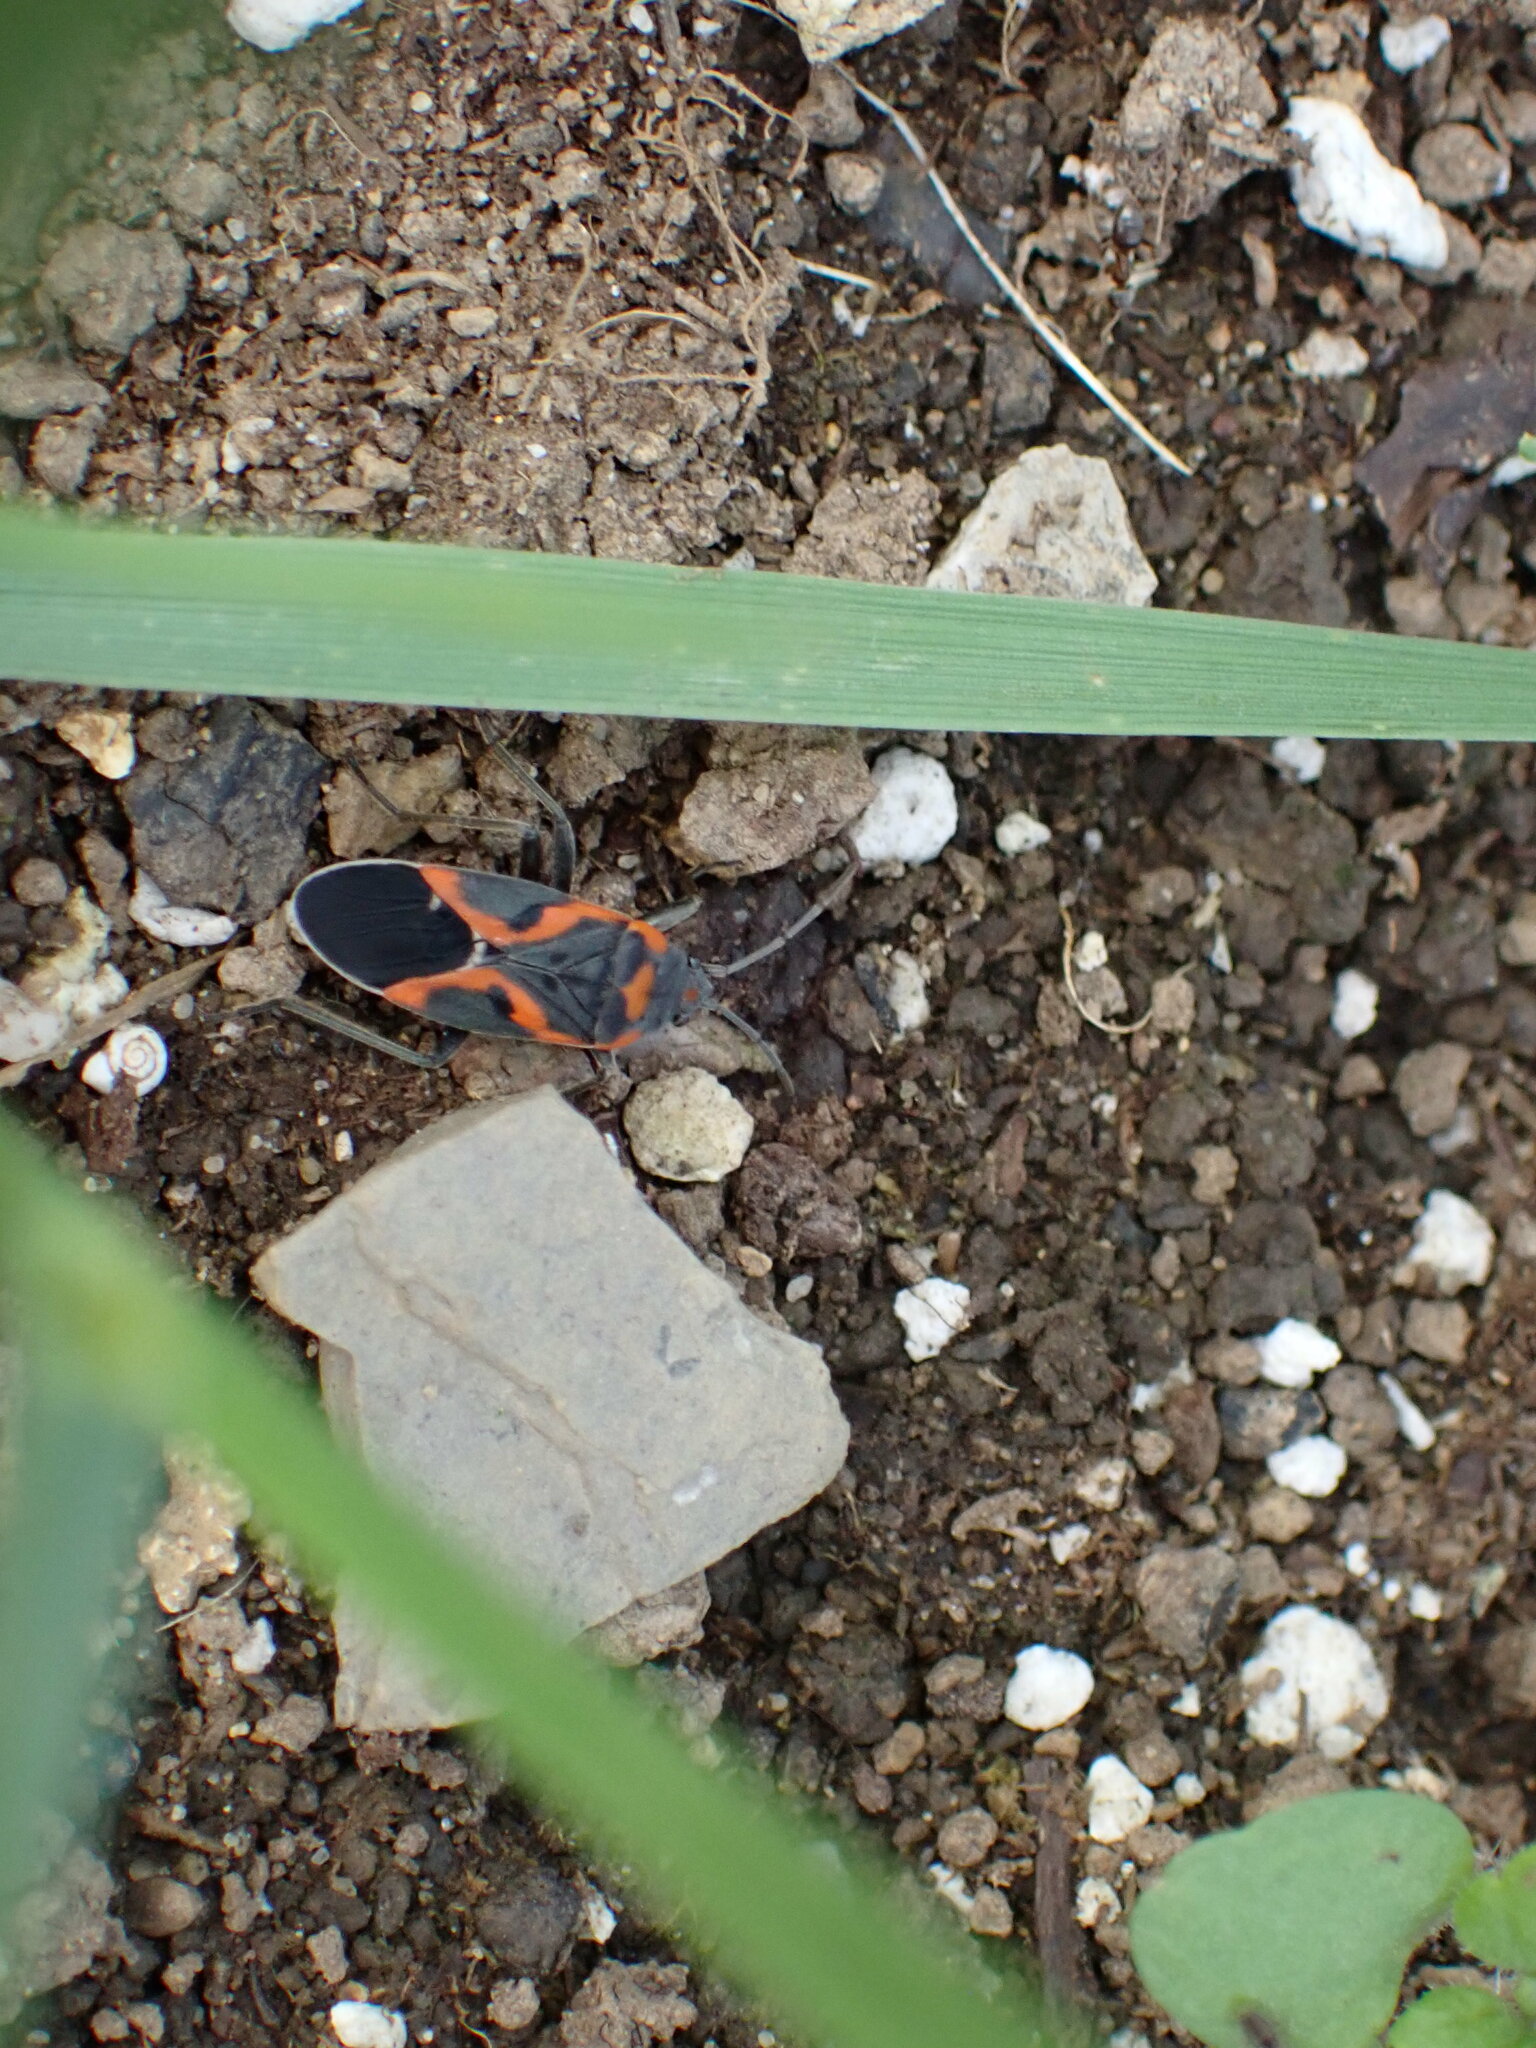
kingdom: Animalia
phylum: Arthropoda
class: Insecta
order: Hemiptera
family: Lygaeidae
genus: Lygaeus
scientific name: Lygaeus kalmii
